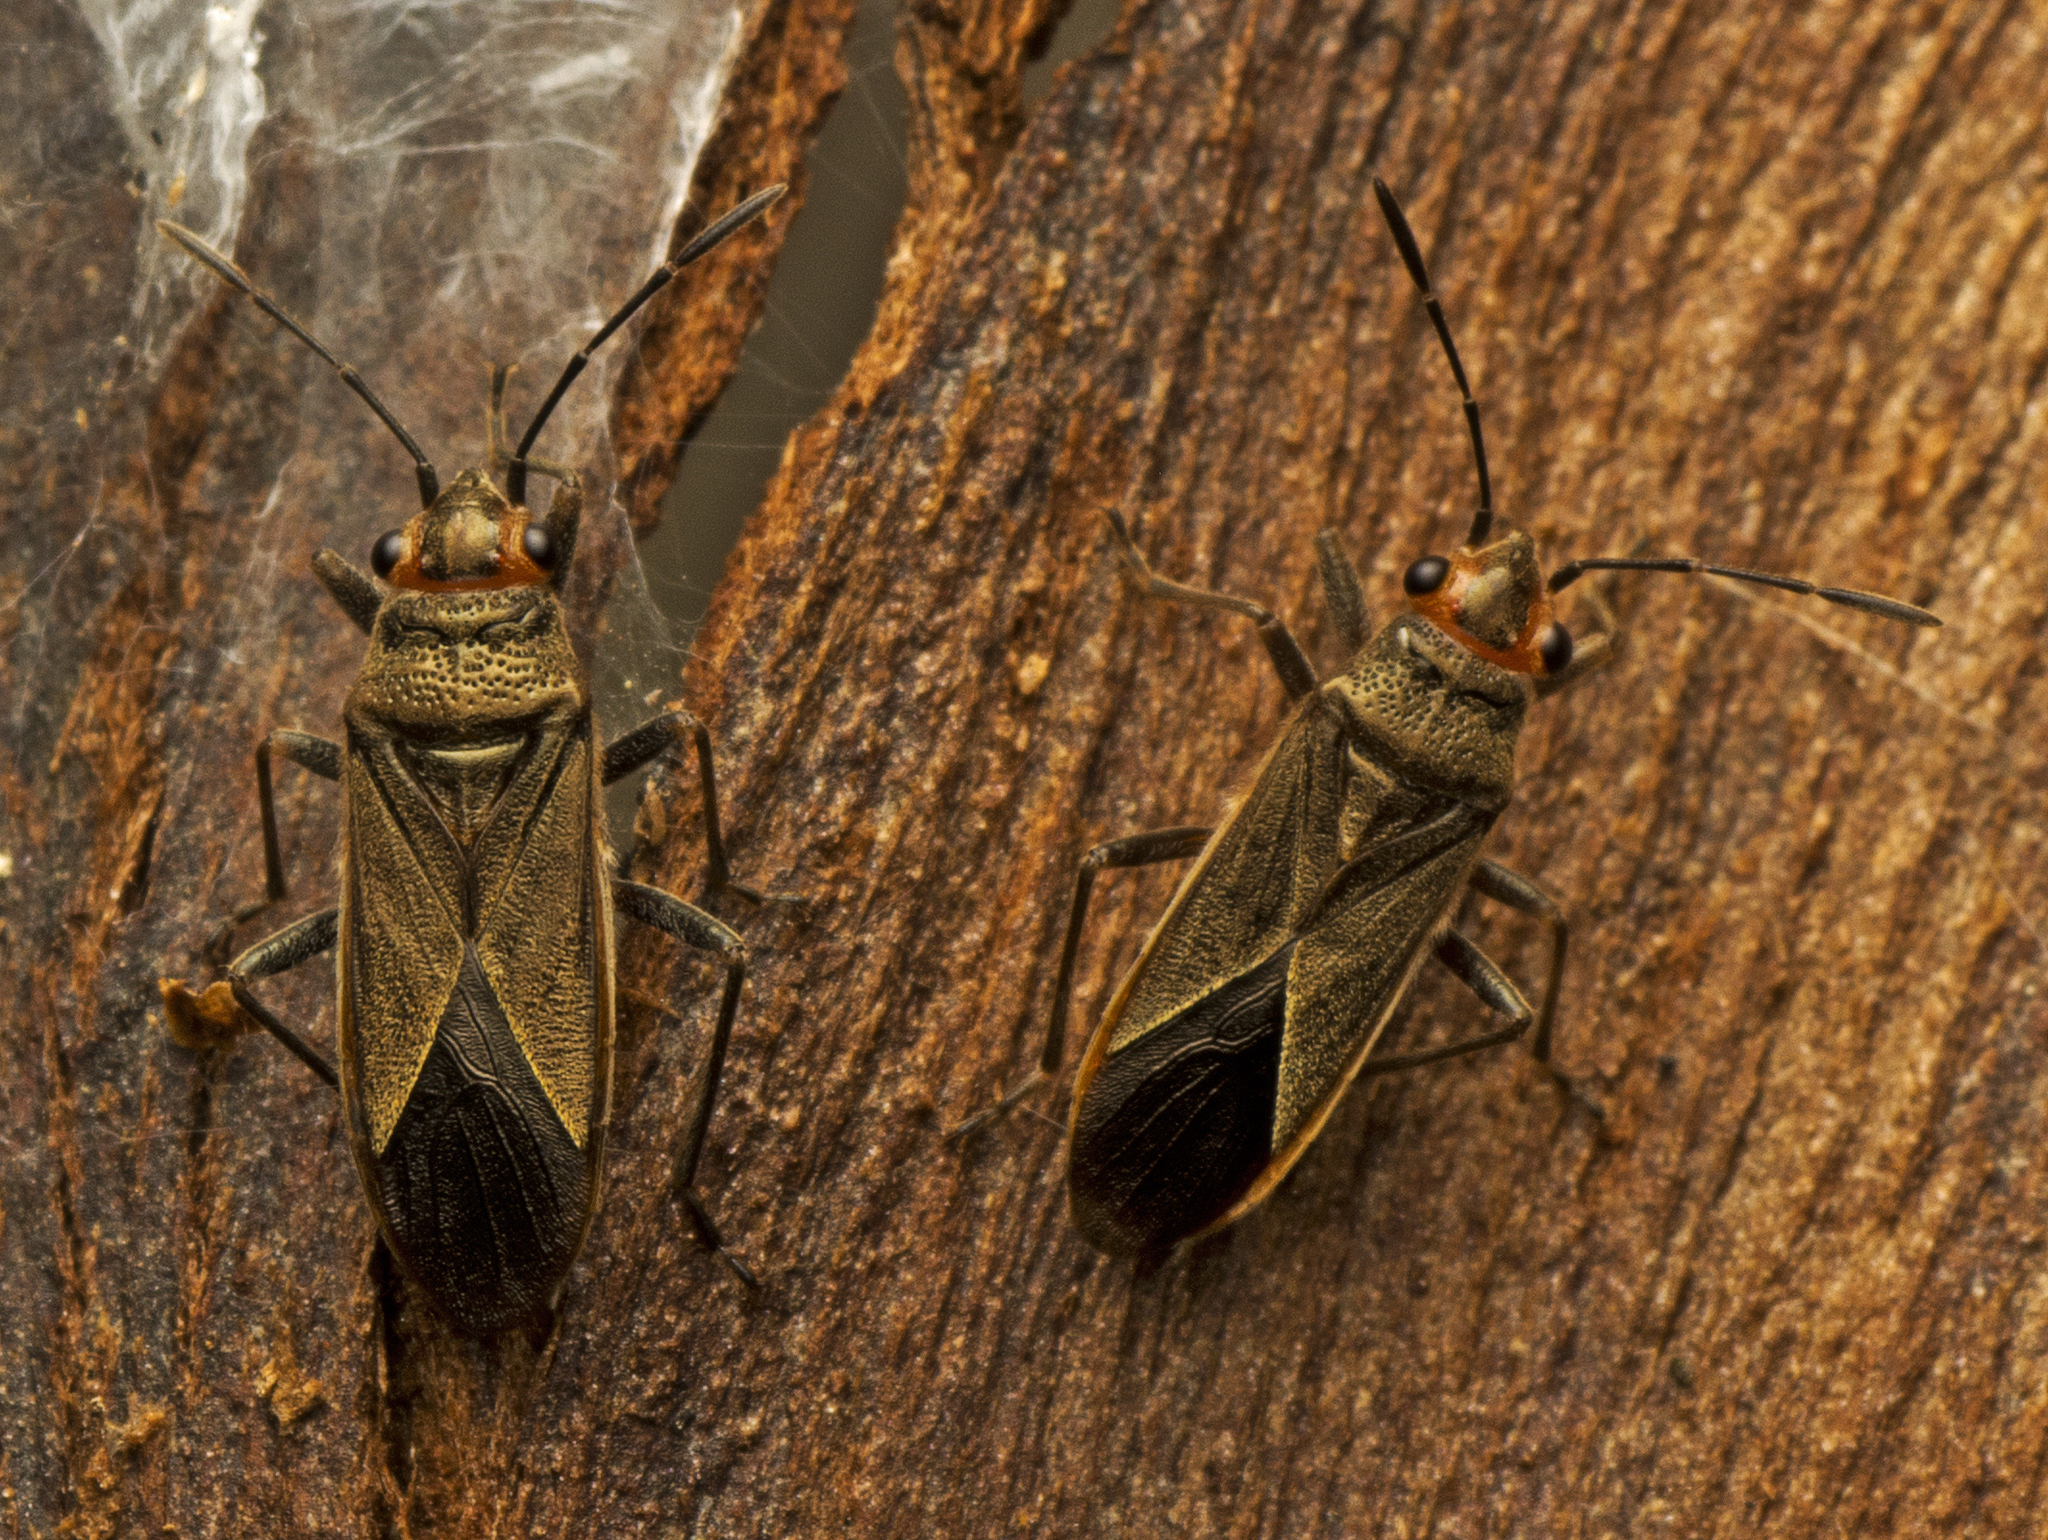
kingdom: Animalia
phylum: Arthropoda
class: Insecta
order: Hemiptera
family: Lygaeidae
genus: Arocatus
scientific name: Arocatus rusticus
